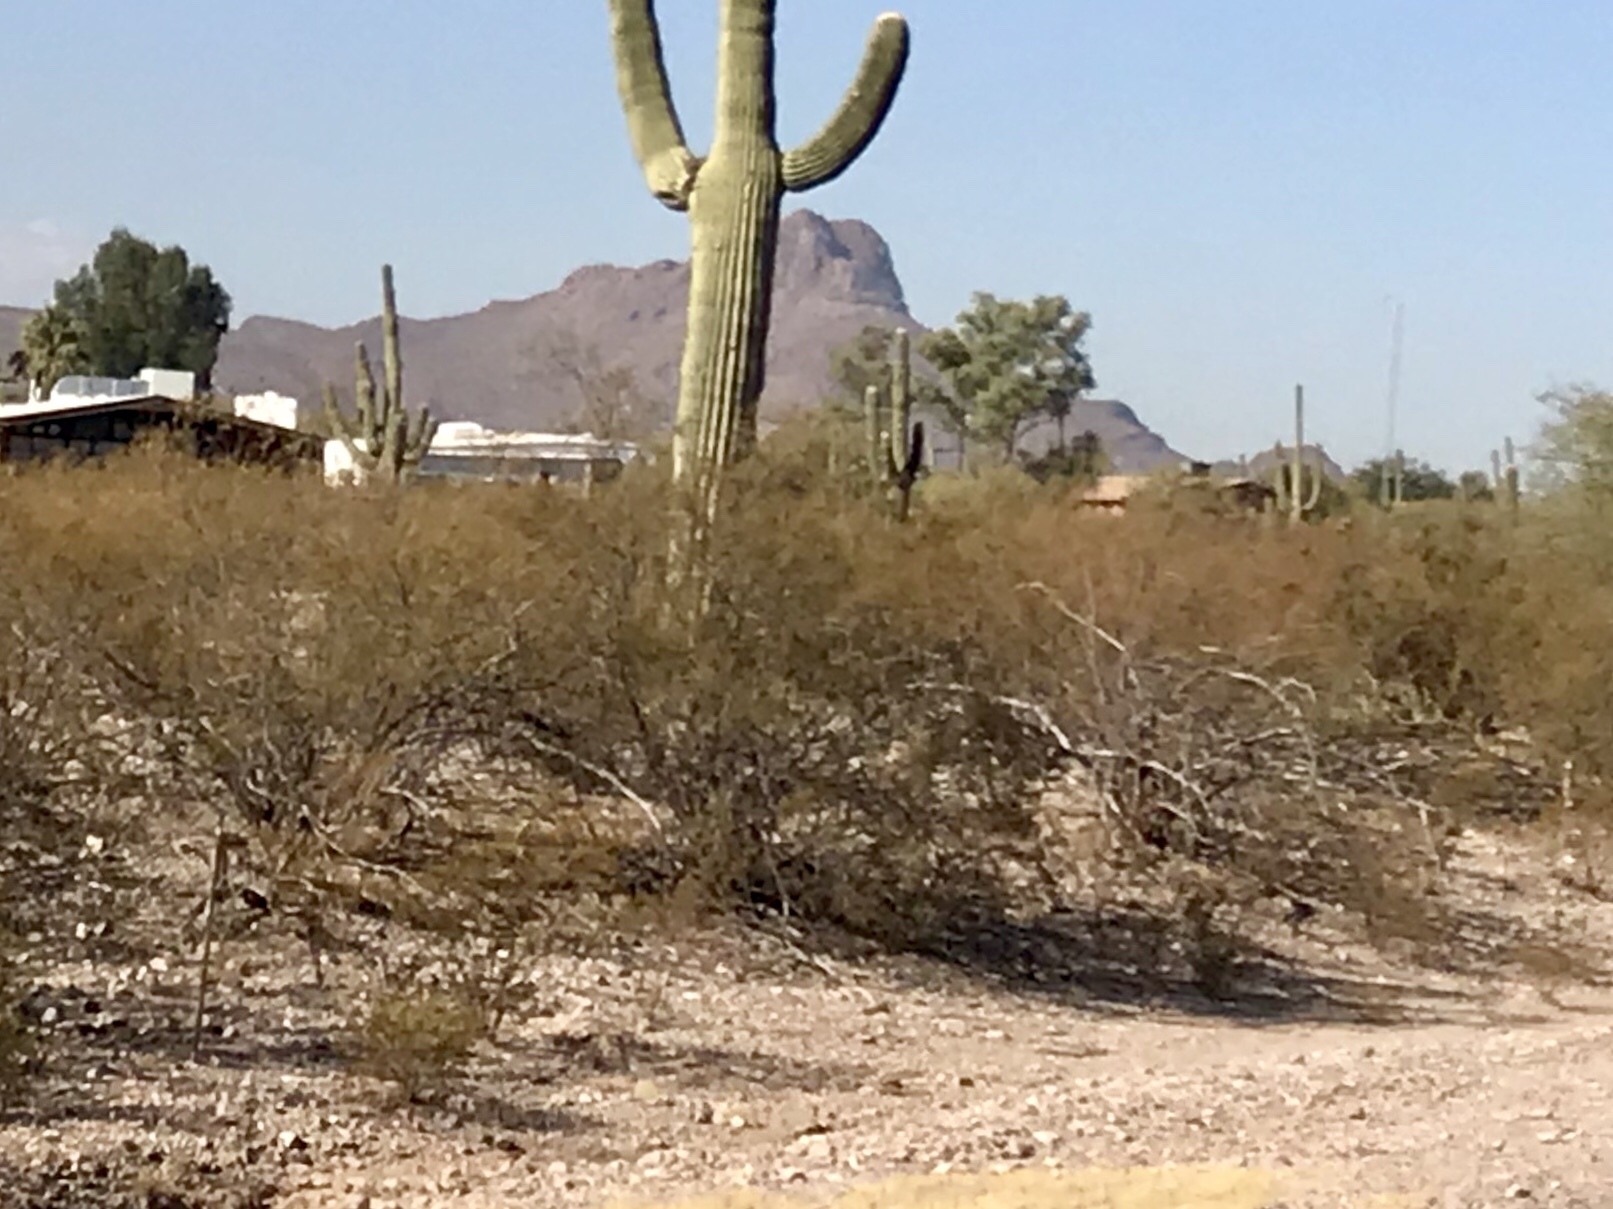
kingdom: Plantae
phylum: Tracheophyta
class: Magnoliopsida
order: Zygophyllales
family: Zygophyllaceae
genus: Larrea
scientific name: Larrea tridentata
